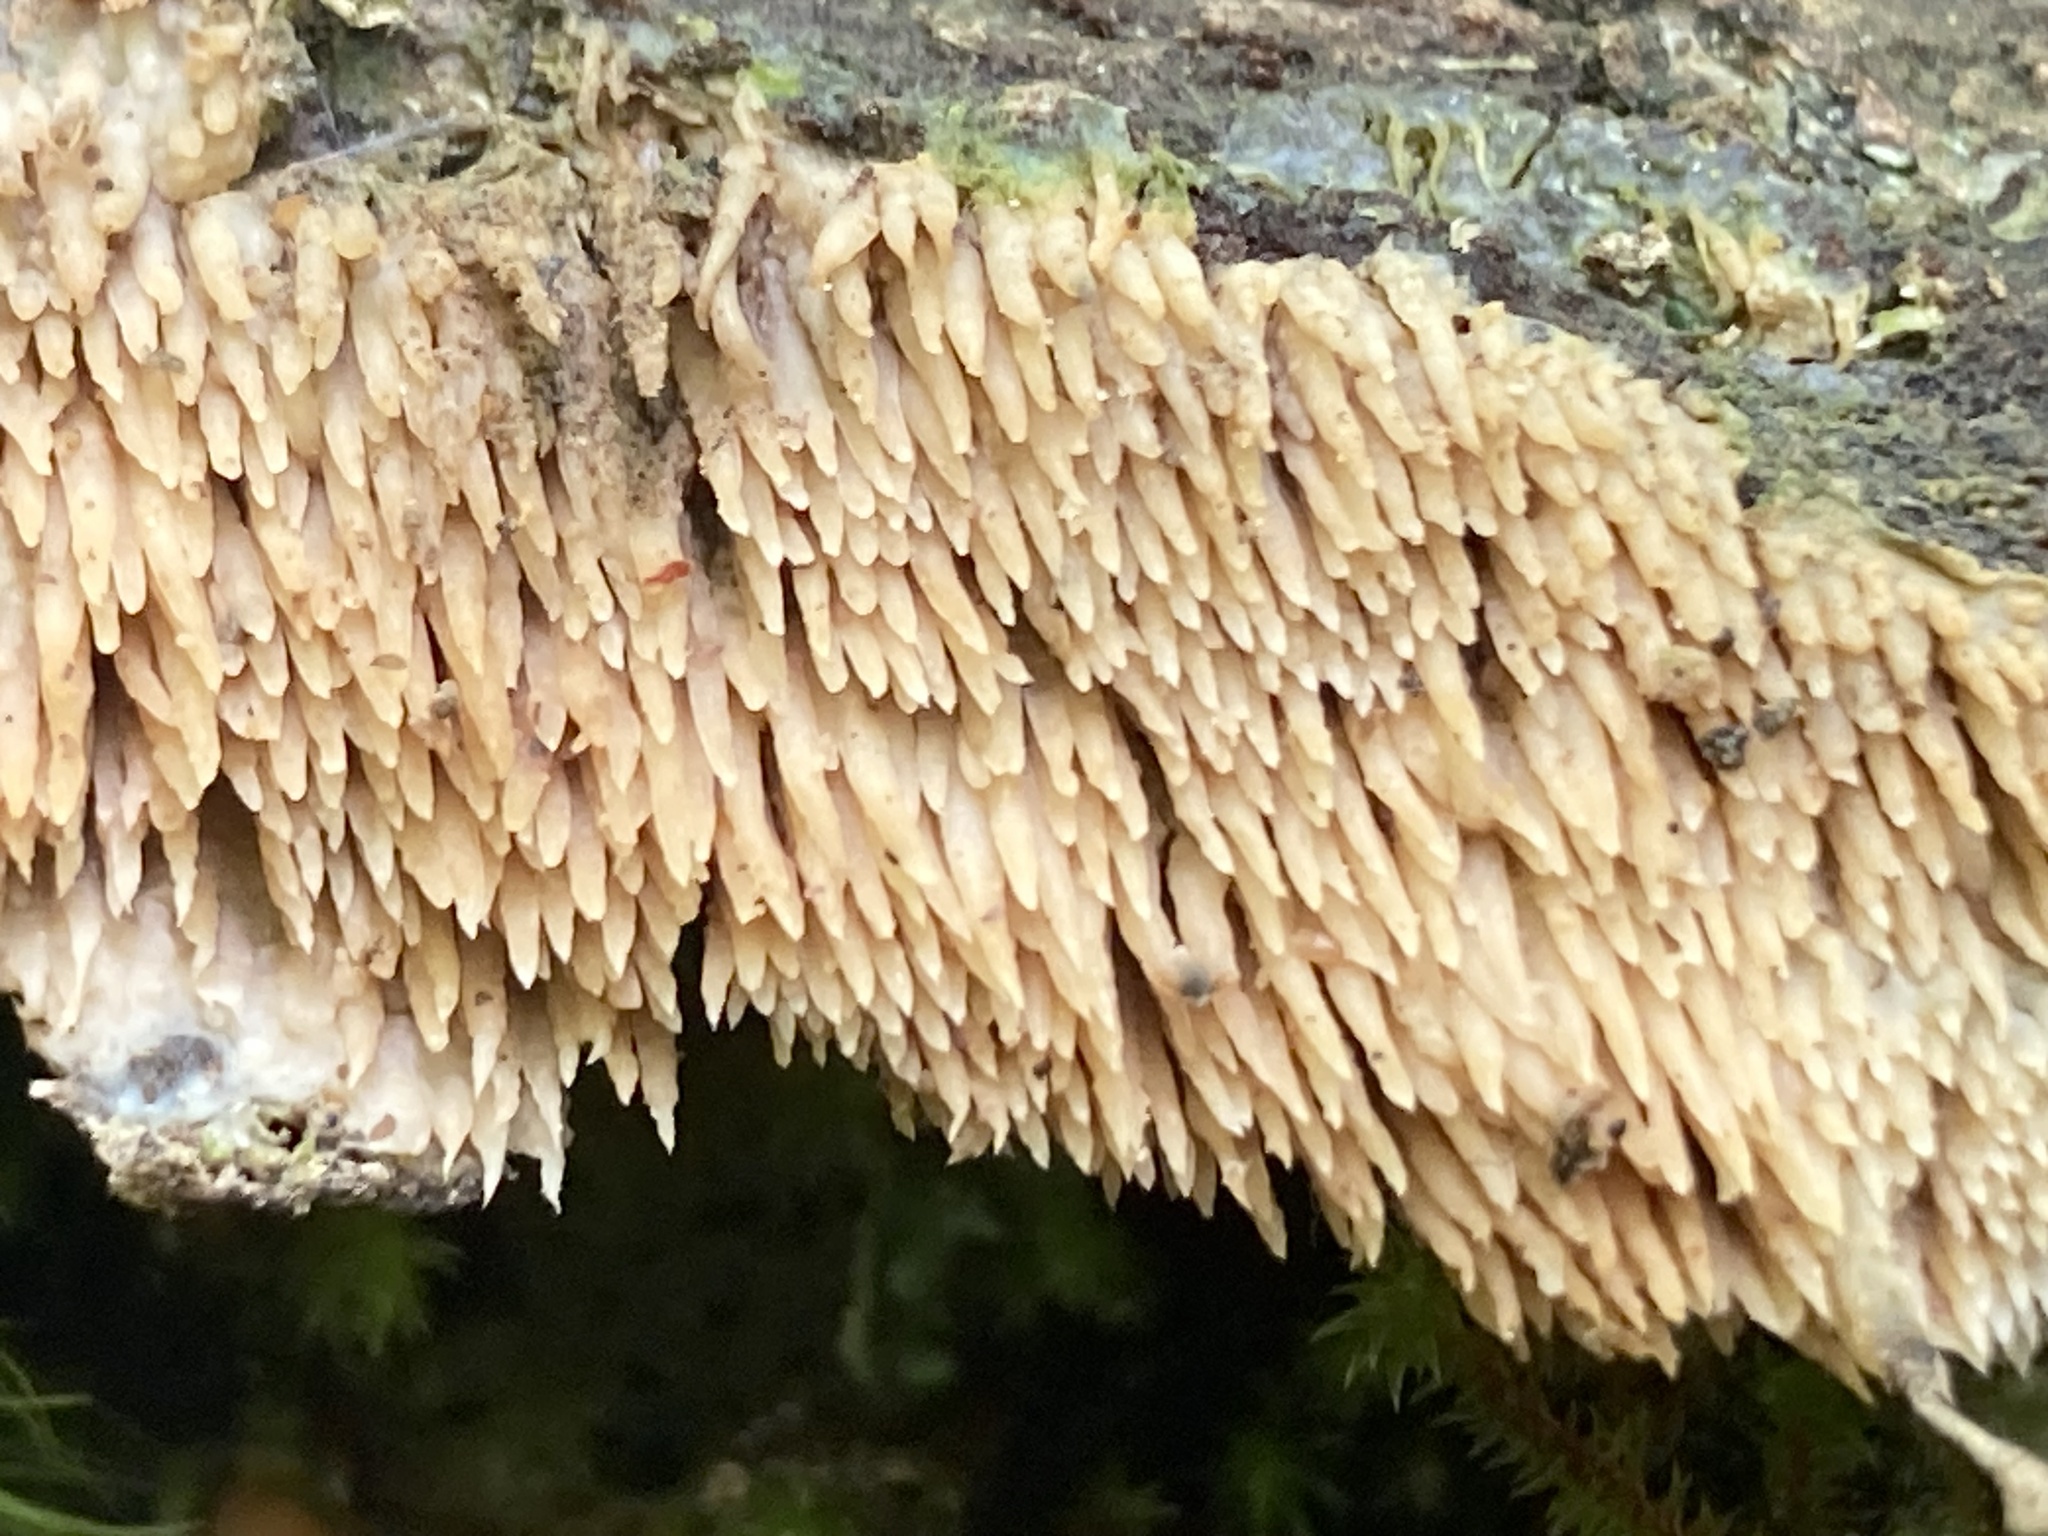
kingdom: Fungi
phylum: Basidiomycota
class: Agaricomycetes
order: Agaricales
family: Radulomycetaceae
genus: Radulomyces
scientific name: Radulomyces copelandii
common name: Asian beauty
